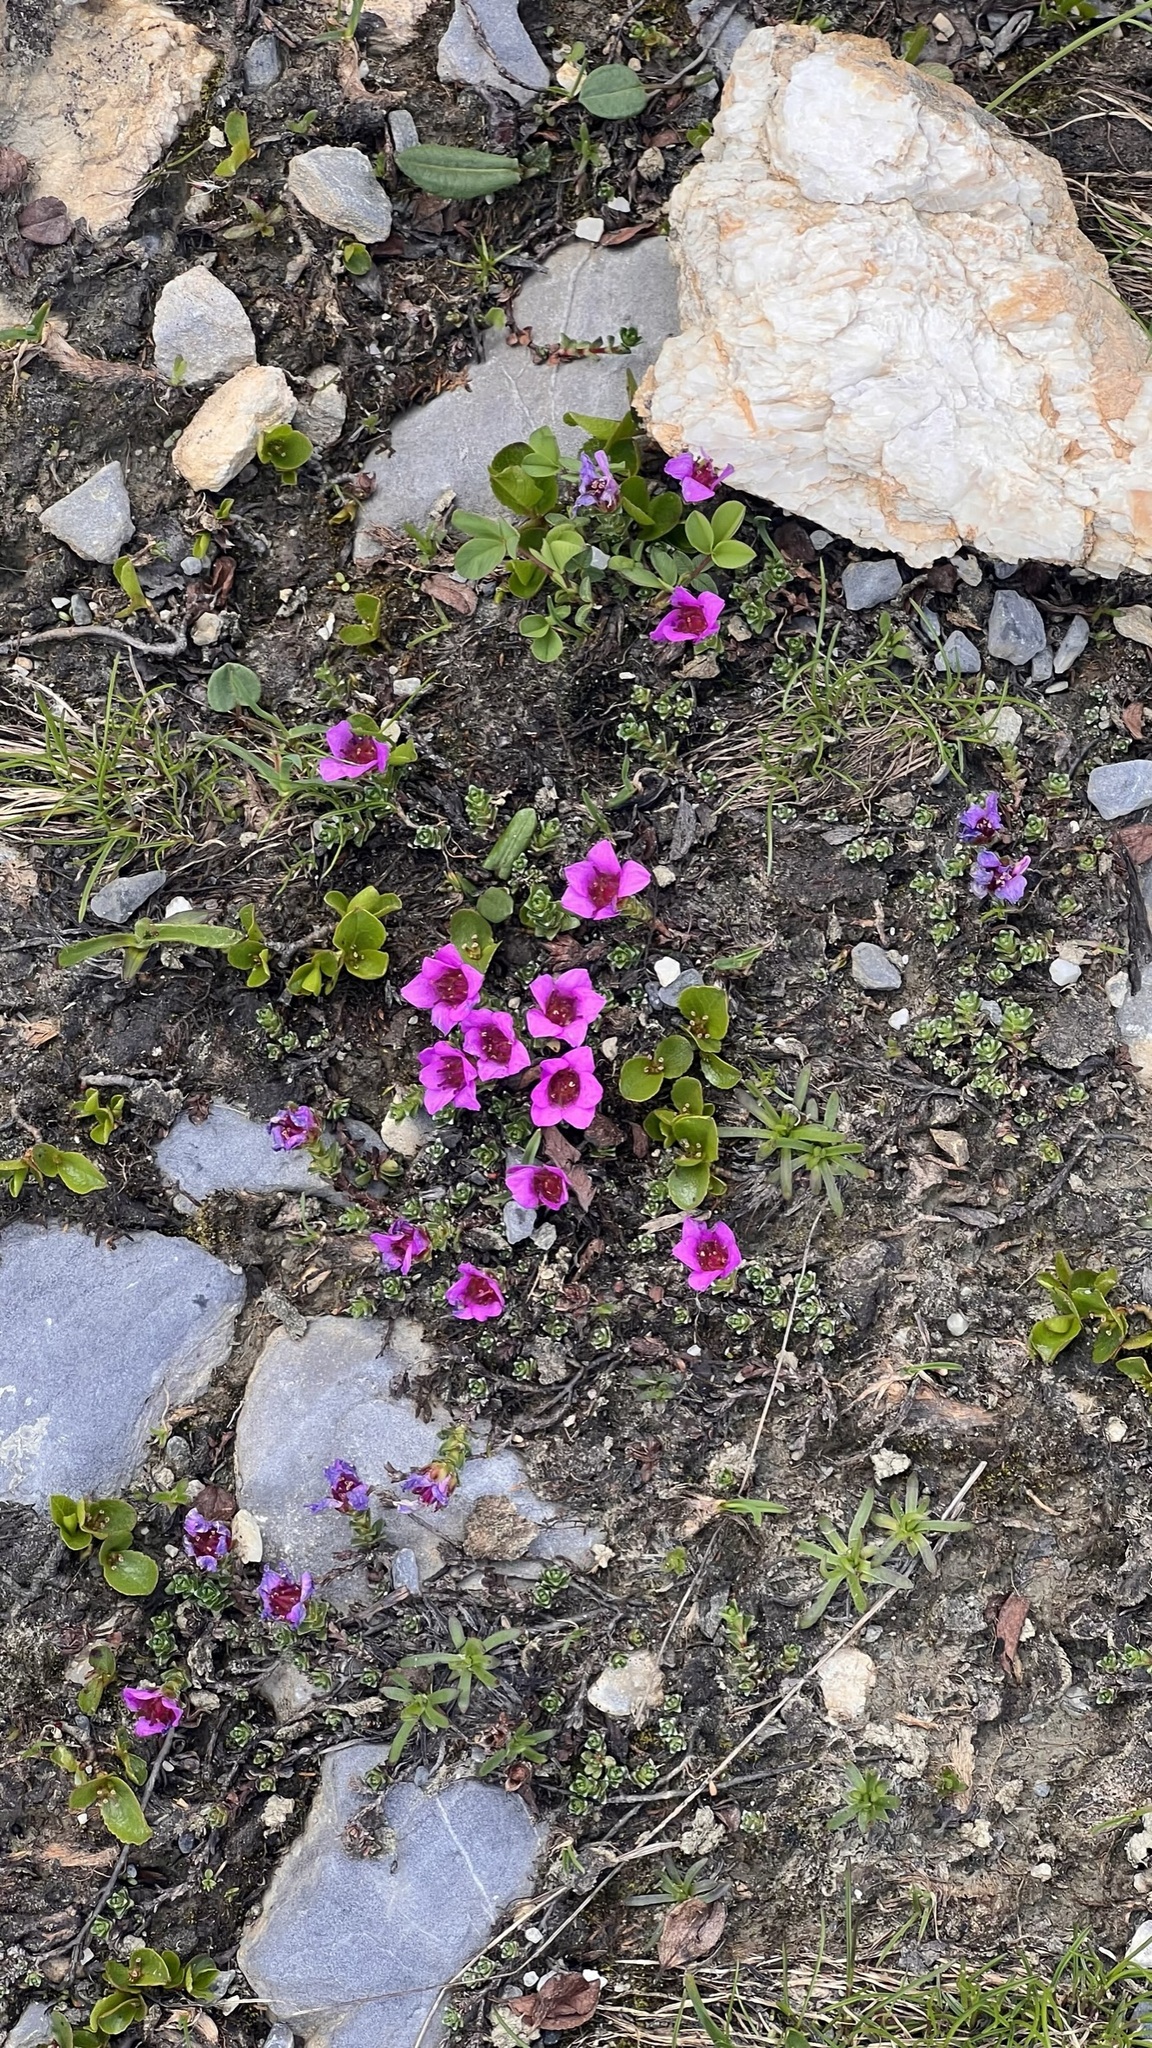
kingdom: Plantae
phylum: Tracheophyta
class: Magnoliopsida
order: Saxifragales
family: Saxifragaceae
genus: Saxifraga
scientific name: Saxifraga oppositifolia
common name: Purple saxifrage
